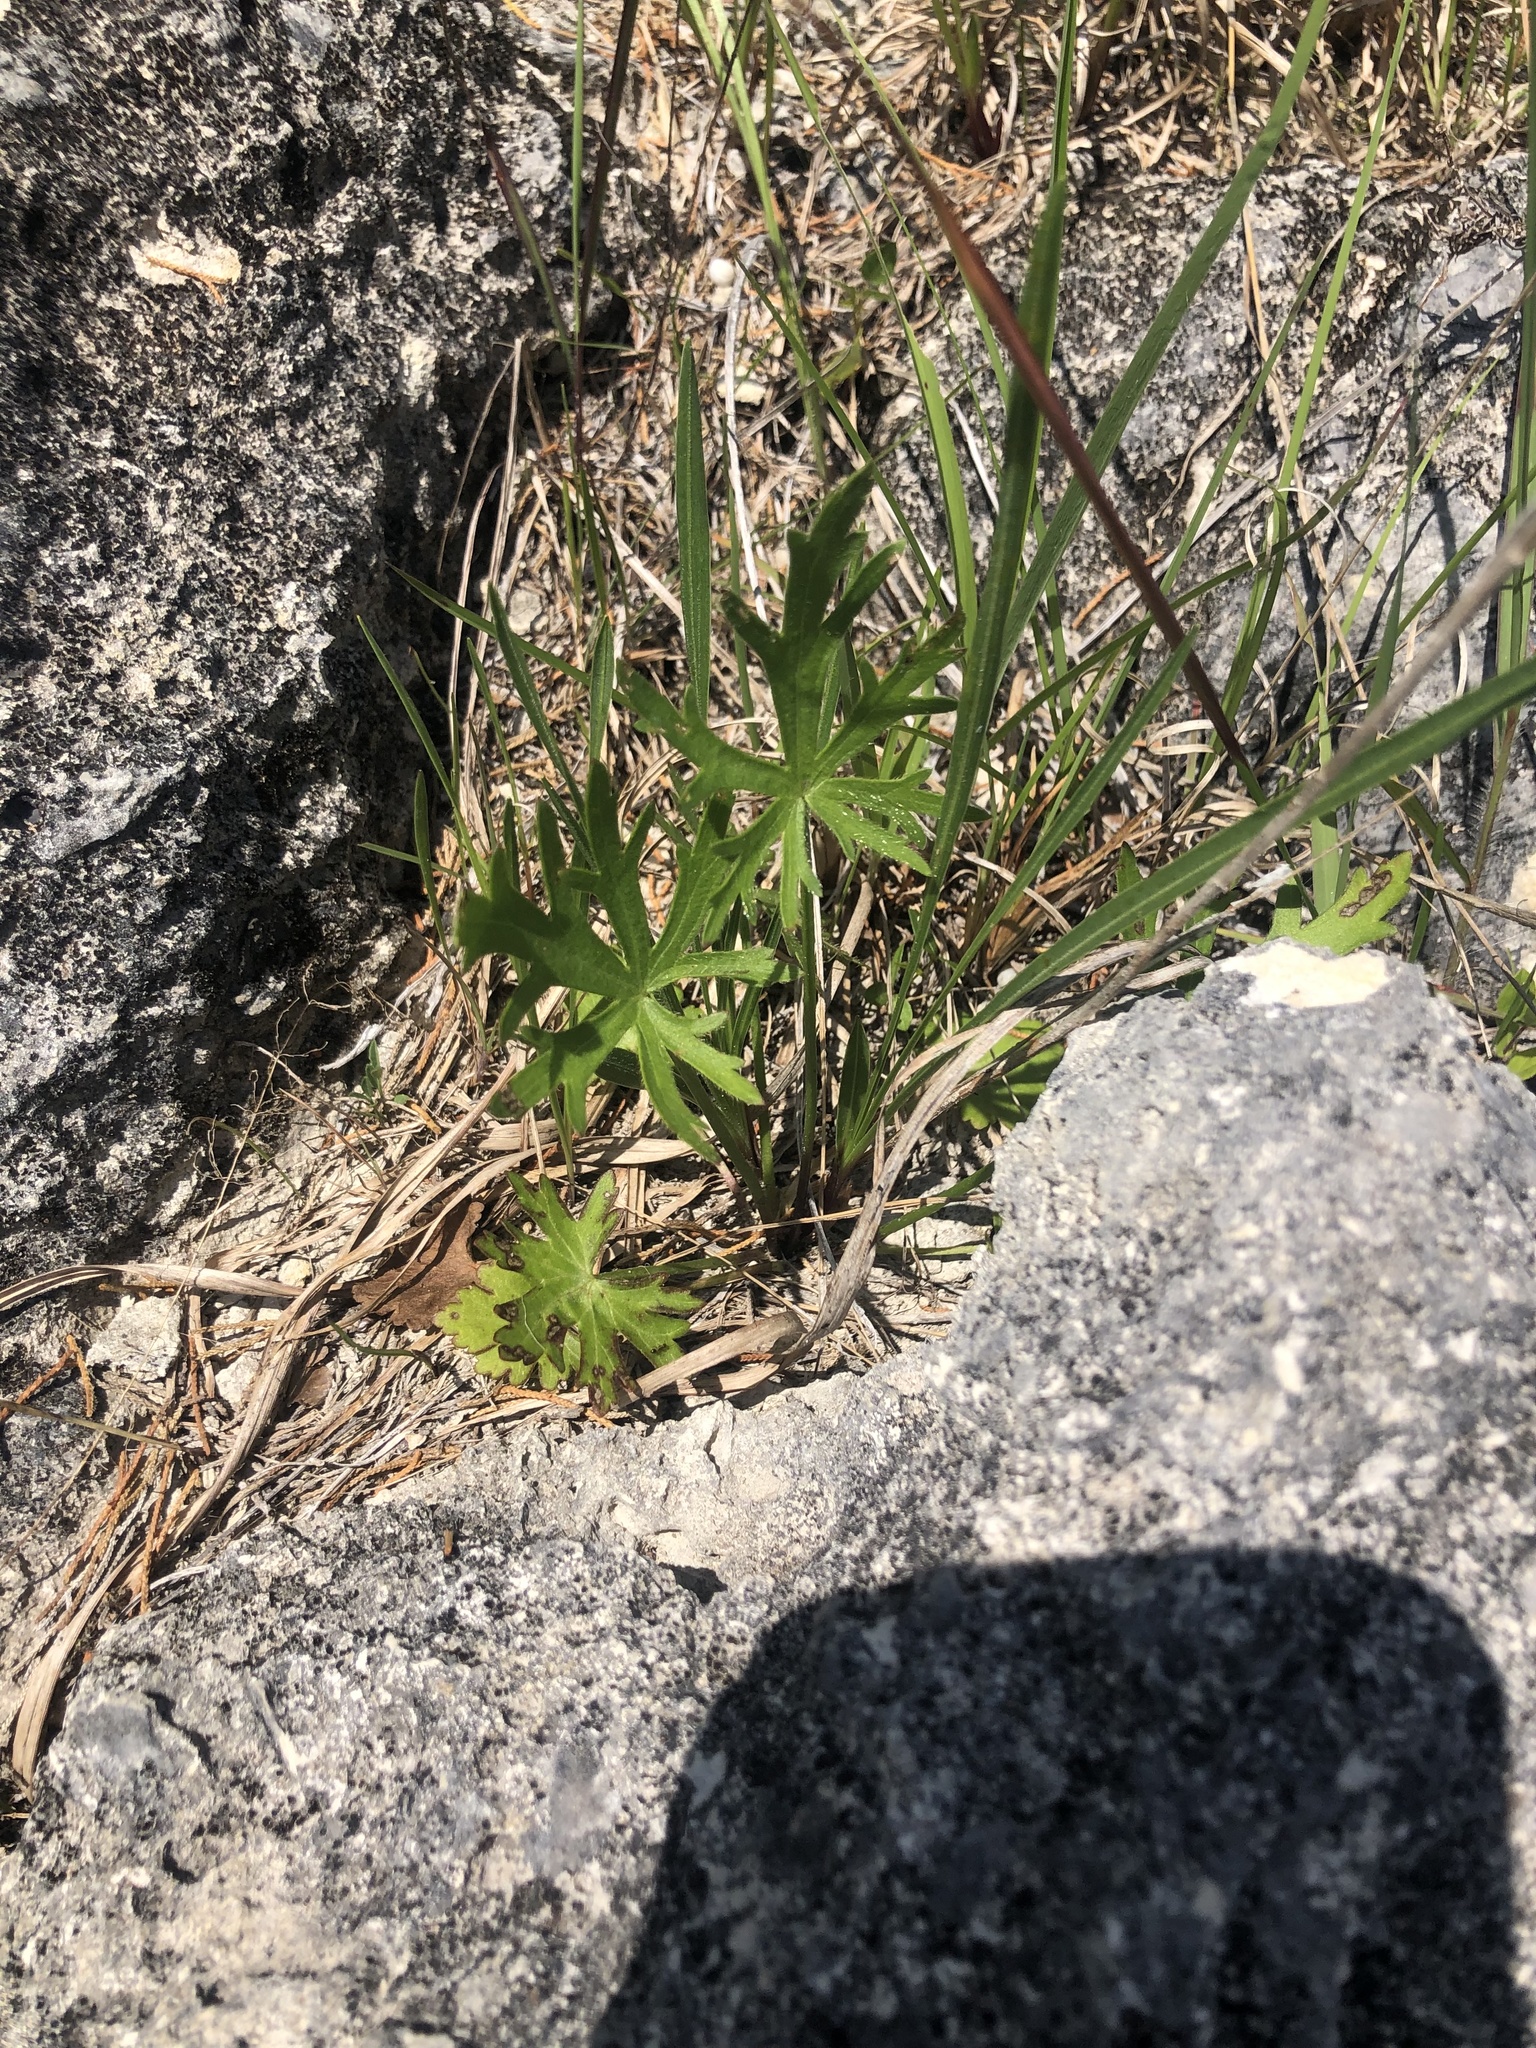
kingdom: Plantae
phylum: Tracheophyta
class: Magnoliopsida
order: Malvales
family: Malvaceae
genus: Callirhoe
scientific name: Callirhoe papaver
